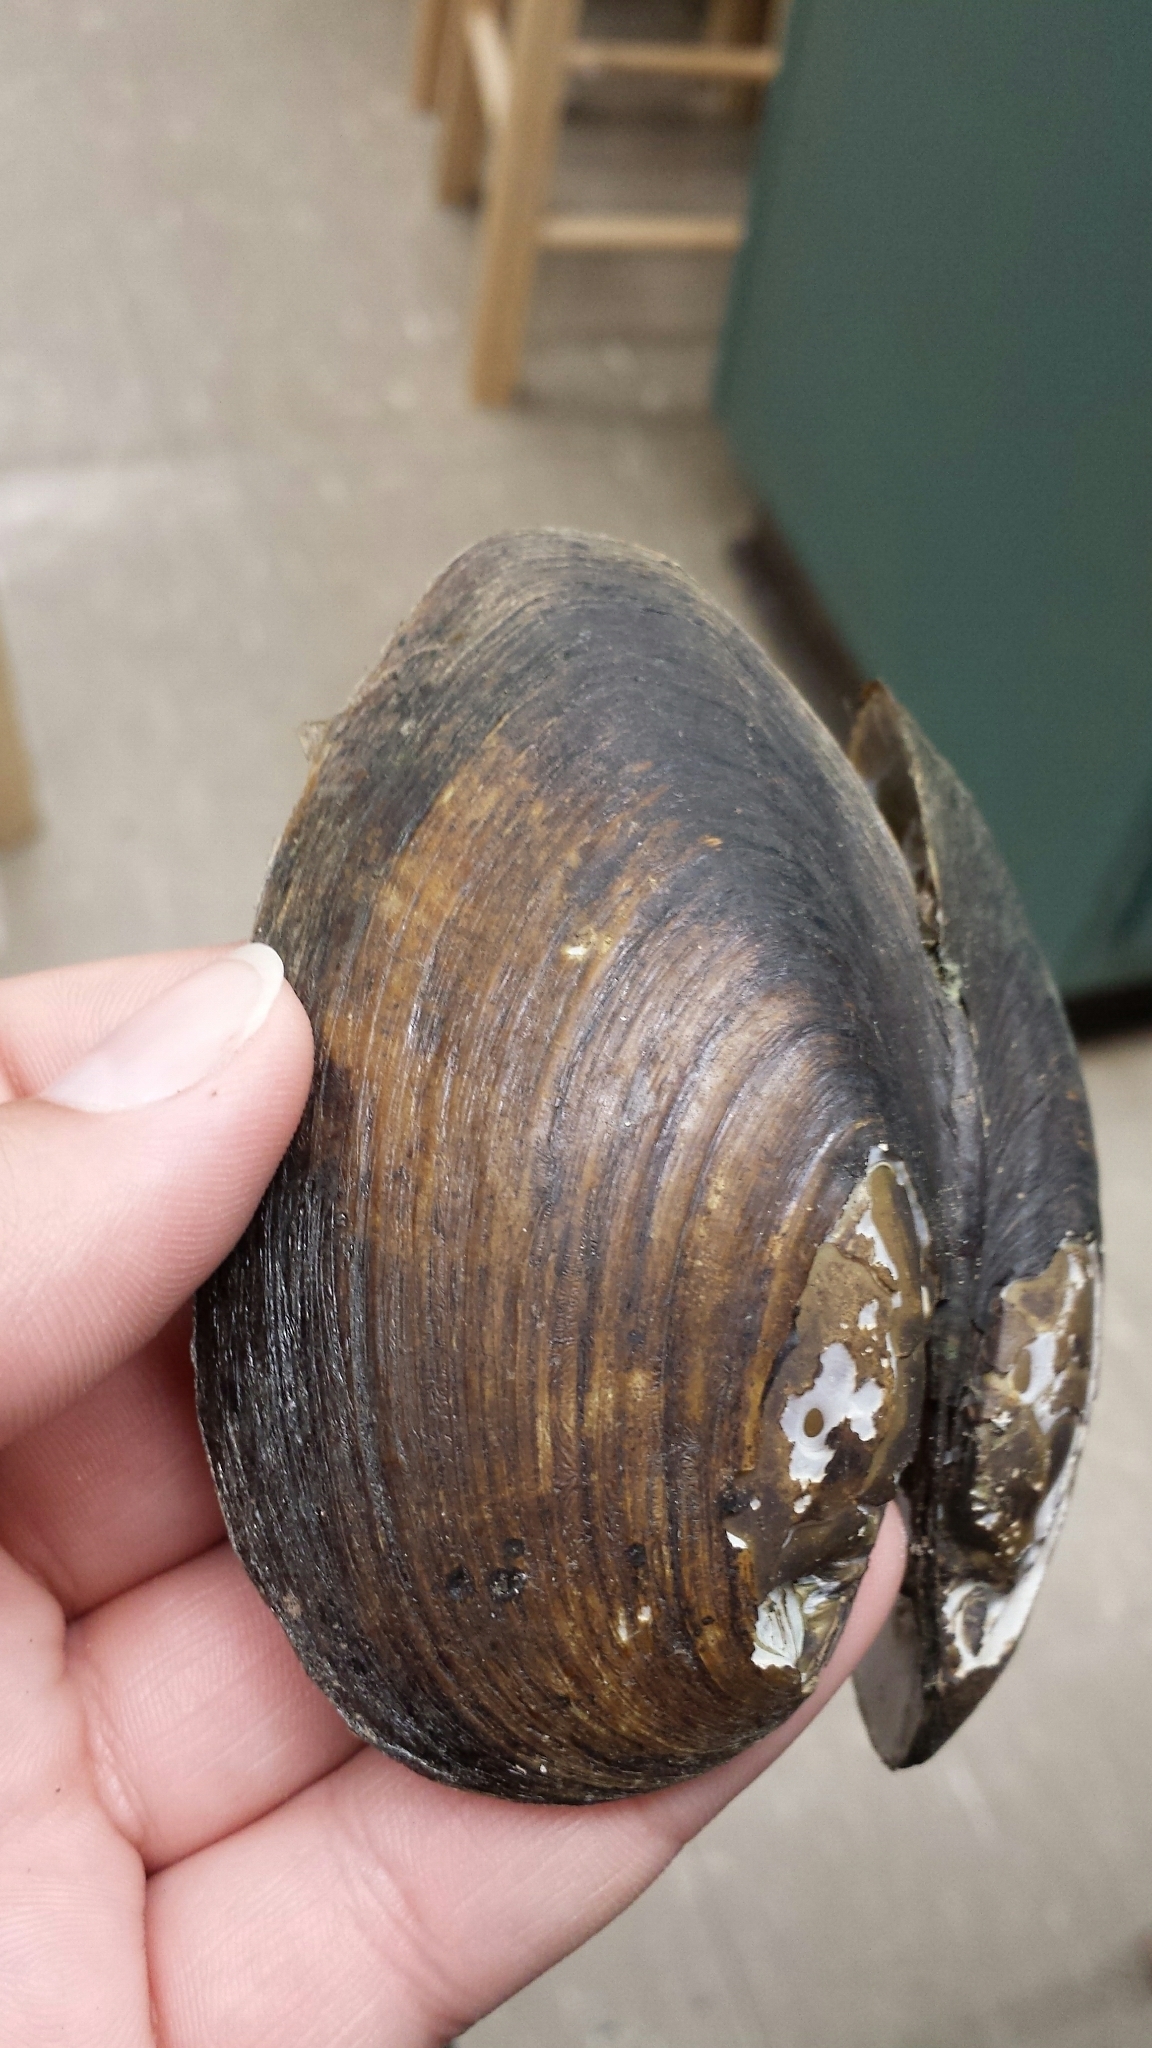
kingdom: Animalia
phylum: Mollusca
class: Bivalvia
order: Unionida
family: Unionidae
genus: Elliptio
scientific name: Elliptio complanata
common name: Eastern elliptio
